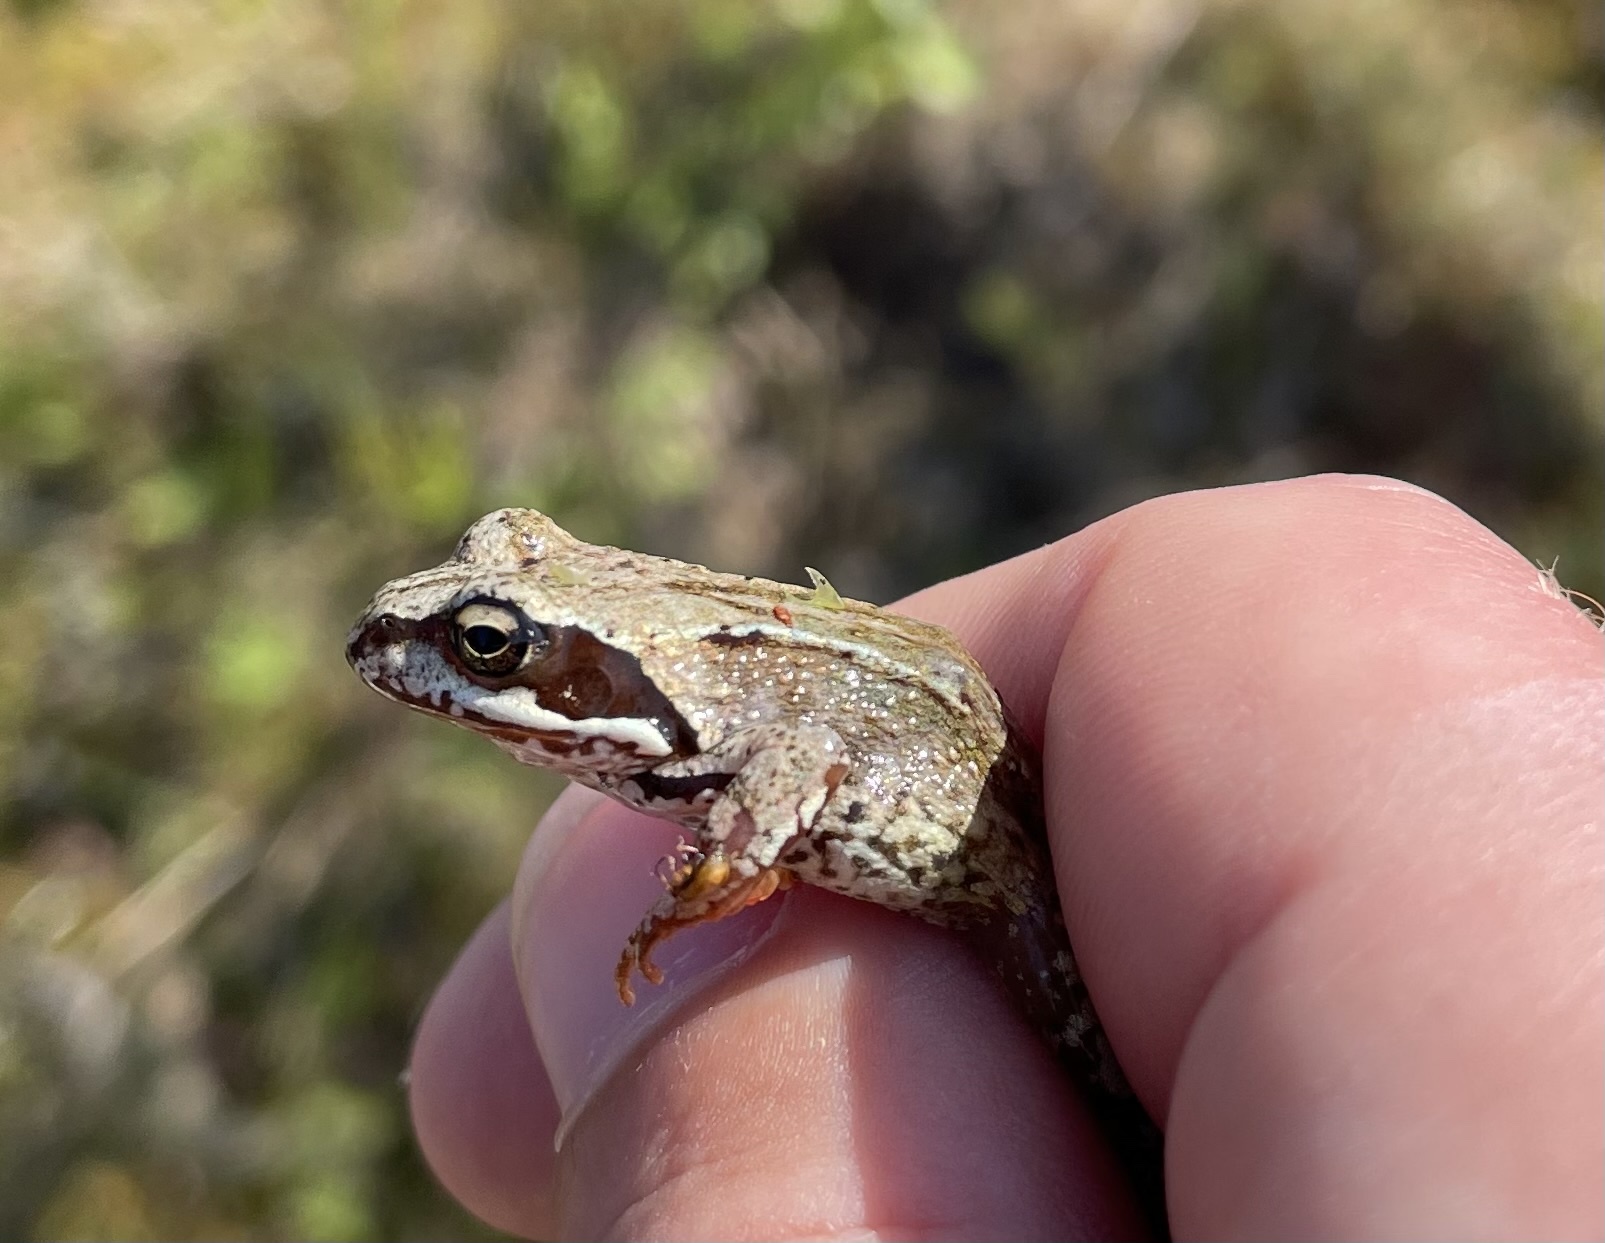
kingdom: Animalia
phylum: Chordata
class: Amphibia
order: Anura
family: Ranidae
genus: Rana
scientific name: Rana temporaria
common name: Common frog
